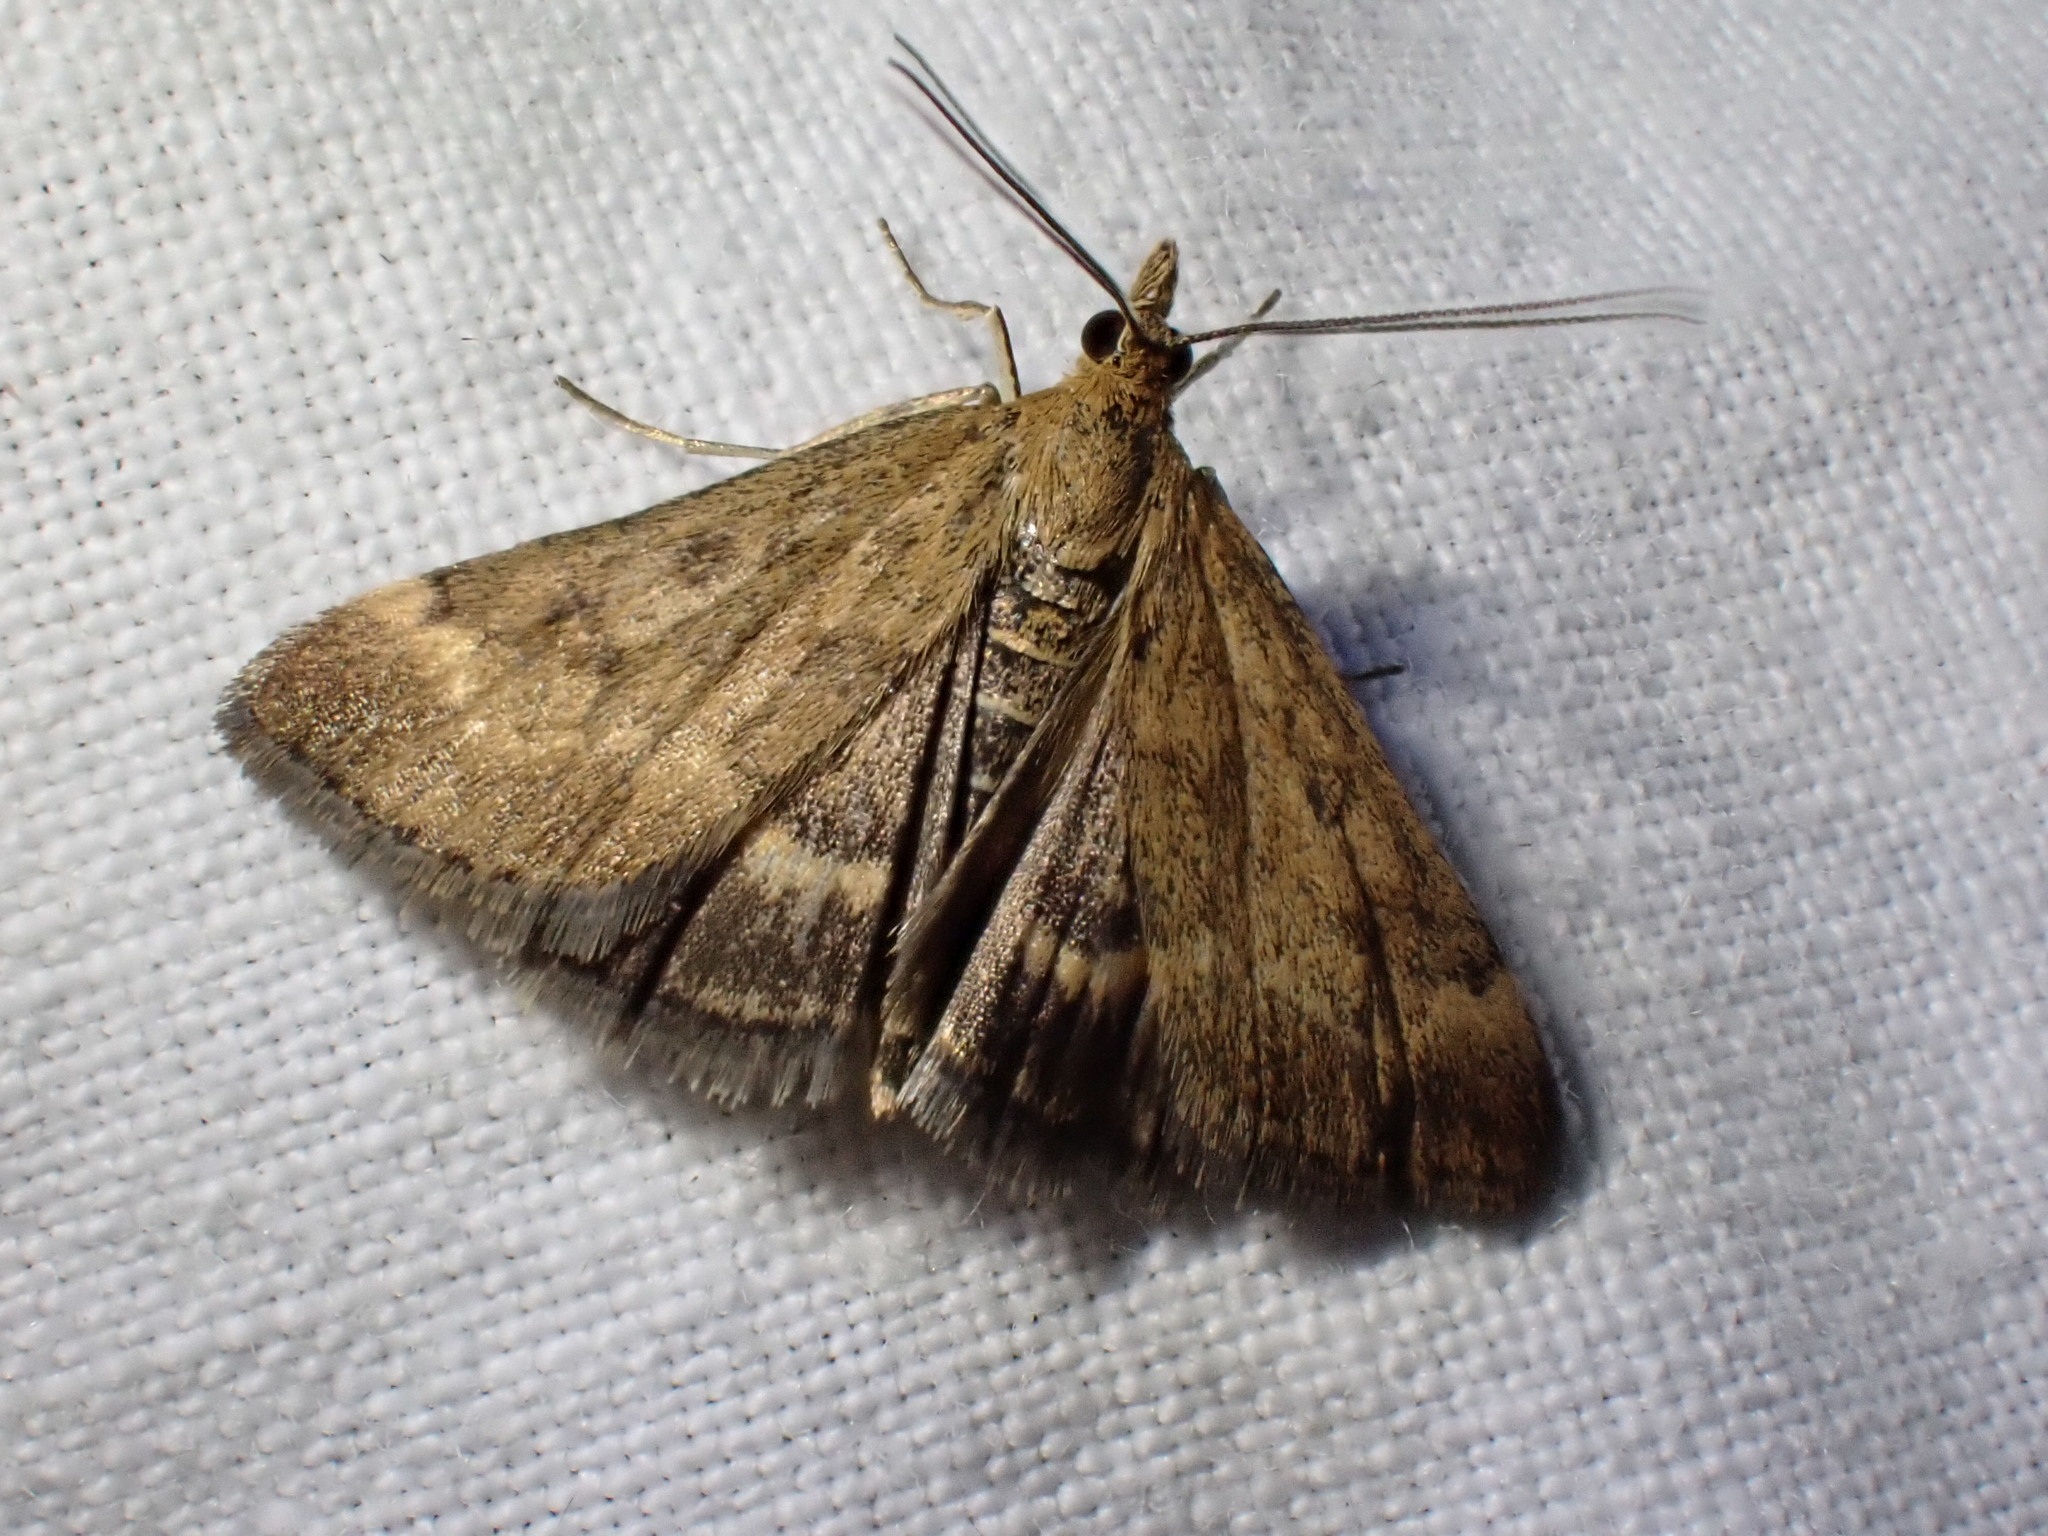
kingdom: Animalia
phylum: Arthropoda
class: Insecta
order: Lepidoptera
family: Crambidae
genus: Pyrausta
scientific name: Pyrausta despicata
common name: Straw-barred pearl
